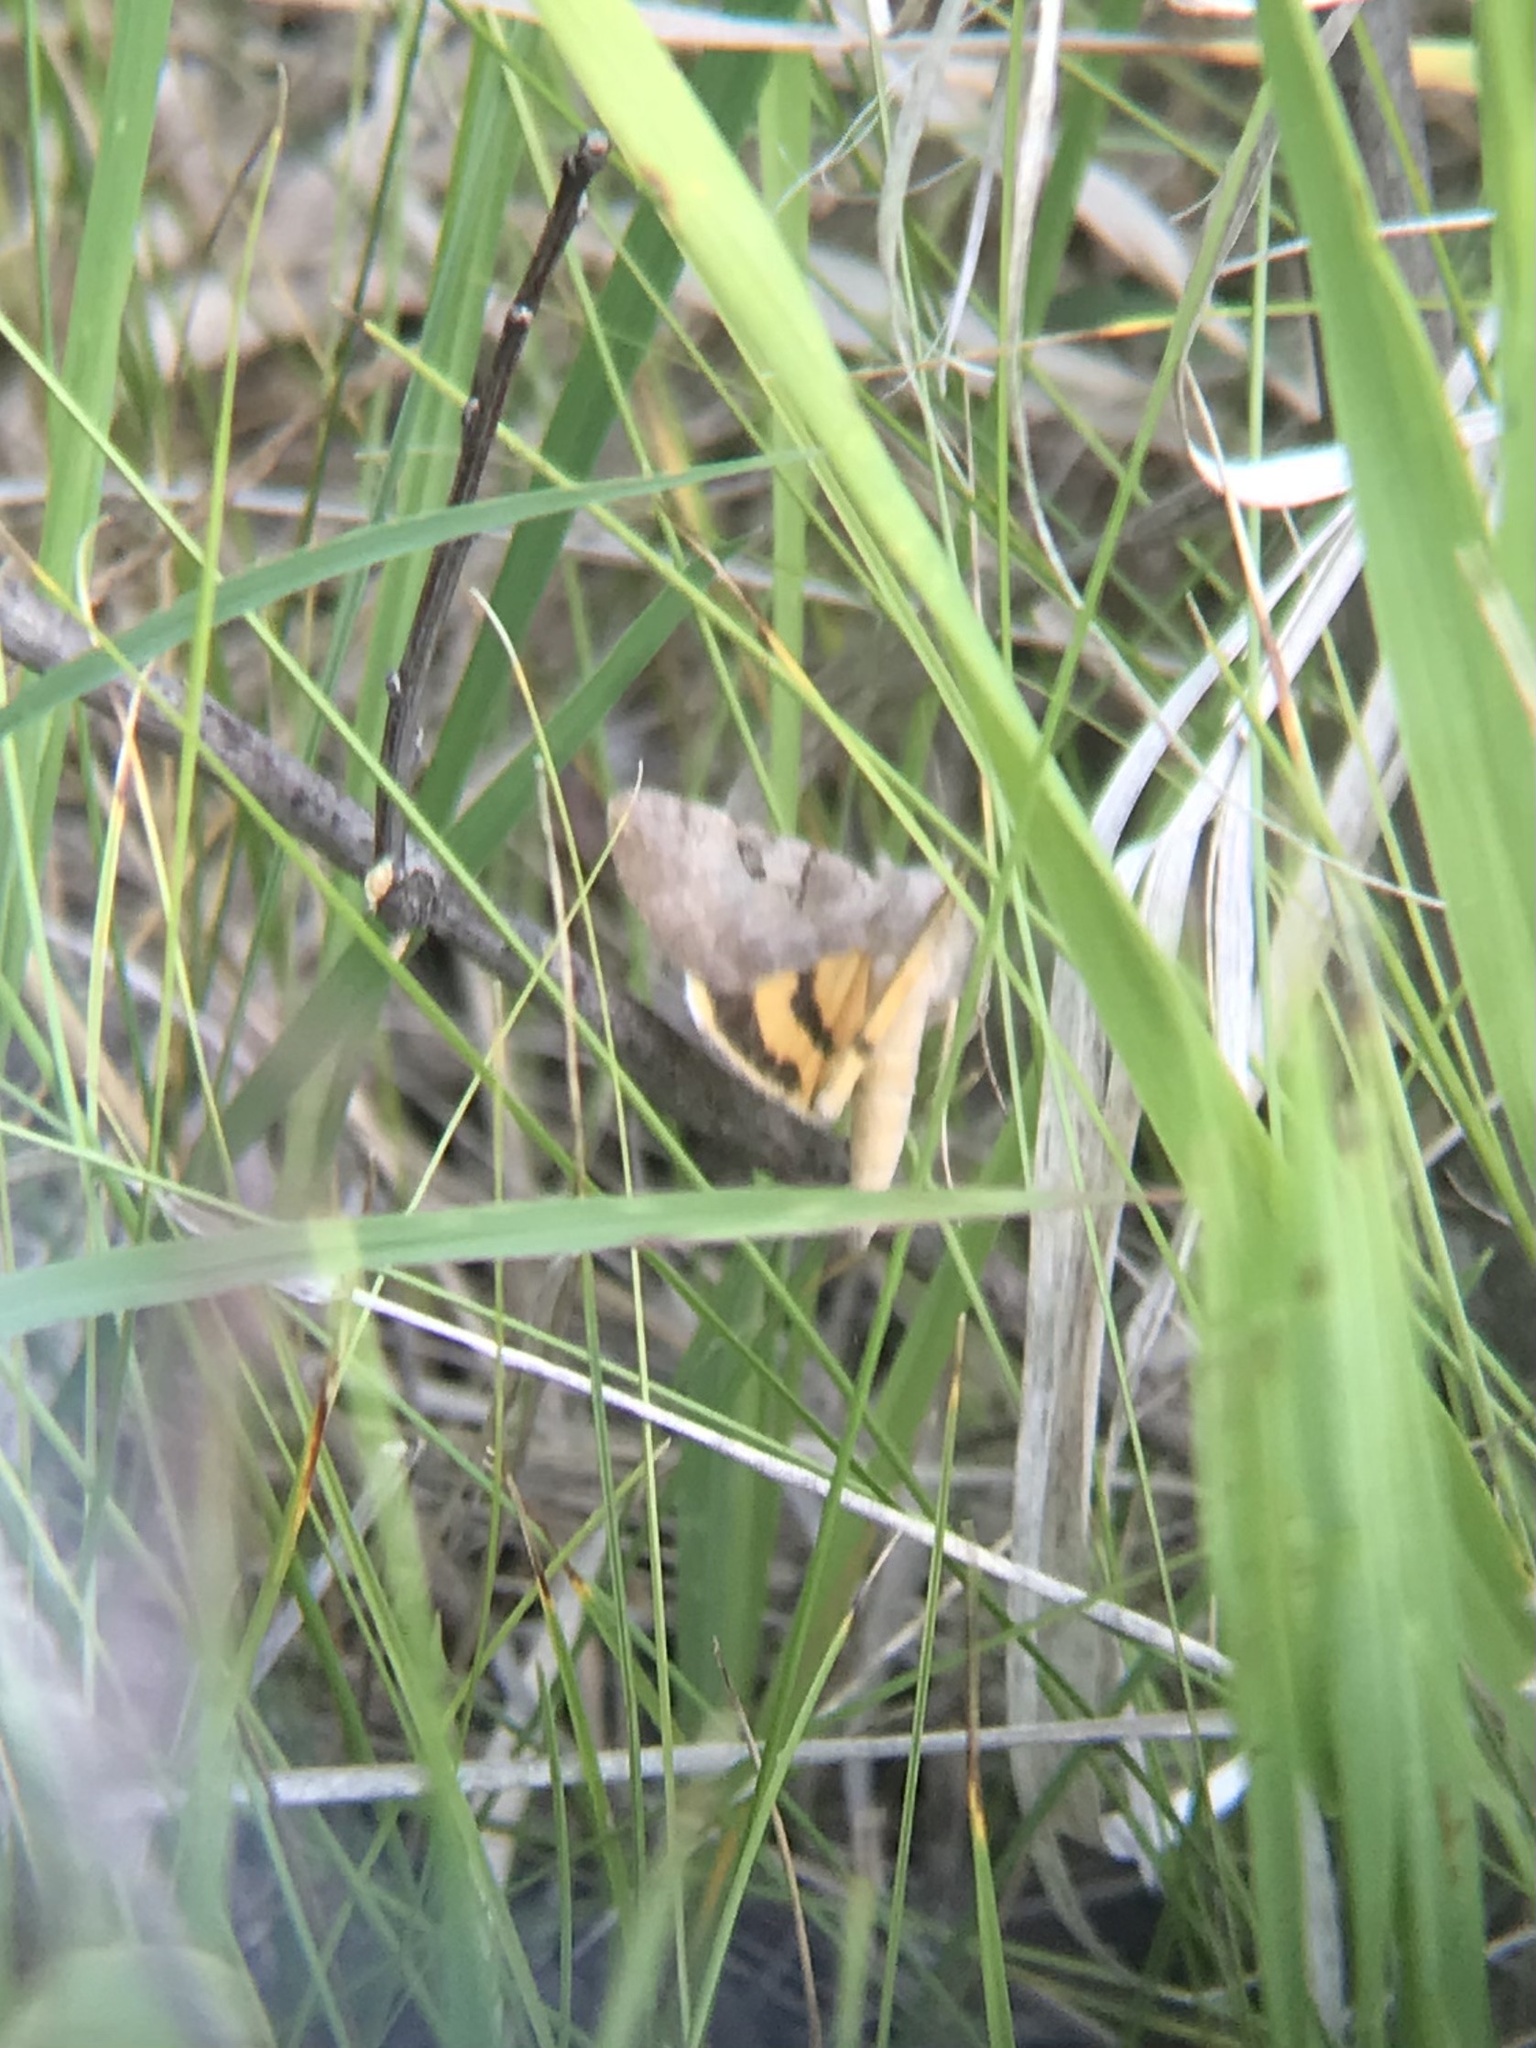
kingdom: Animalia
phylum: Arthropoda
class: Insecta
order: Lepidoptera
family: Erebidae
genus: Catocala
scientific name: Catocala abbreviatella
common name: Abbreviated underwing
